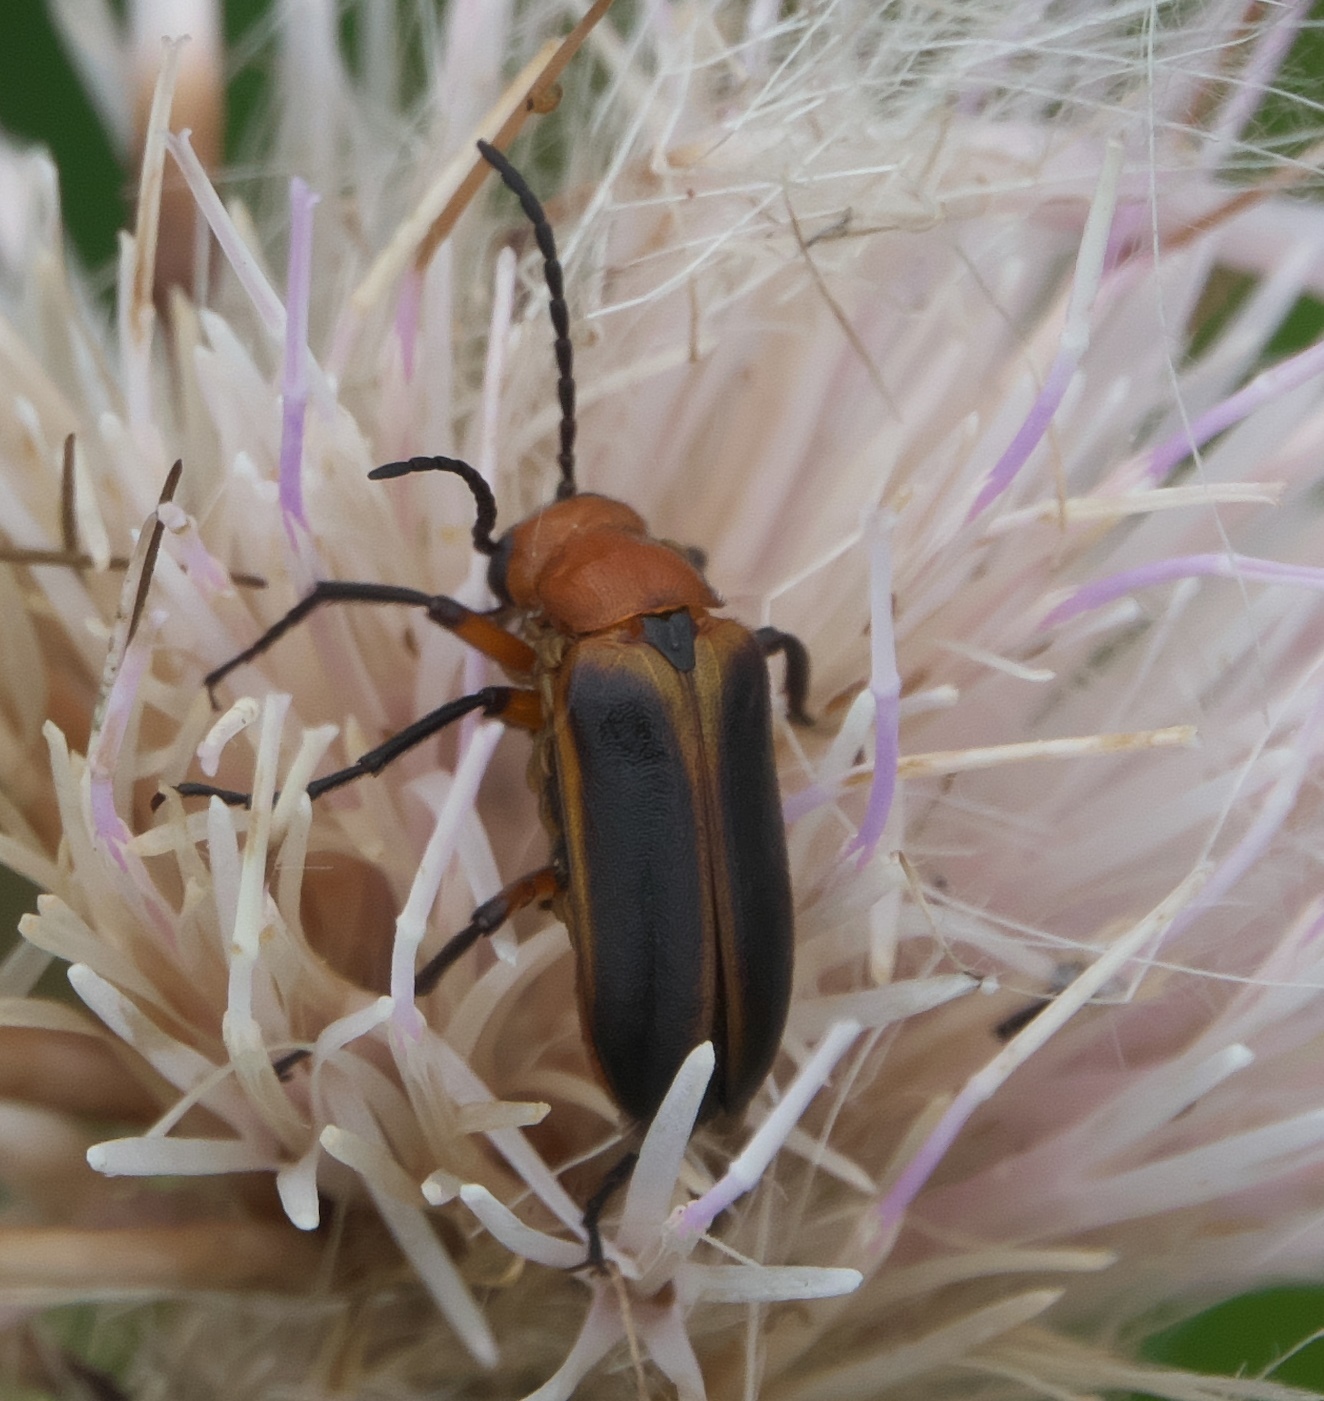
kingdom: Animalia
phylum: Arthropoda
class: Insecta
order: Coleoptera
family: Meloidae
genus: Nemognatha
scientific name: Nemognatha piazata
